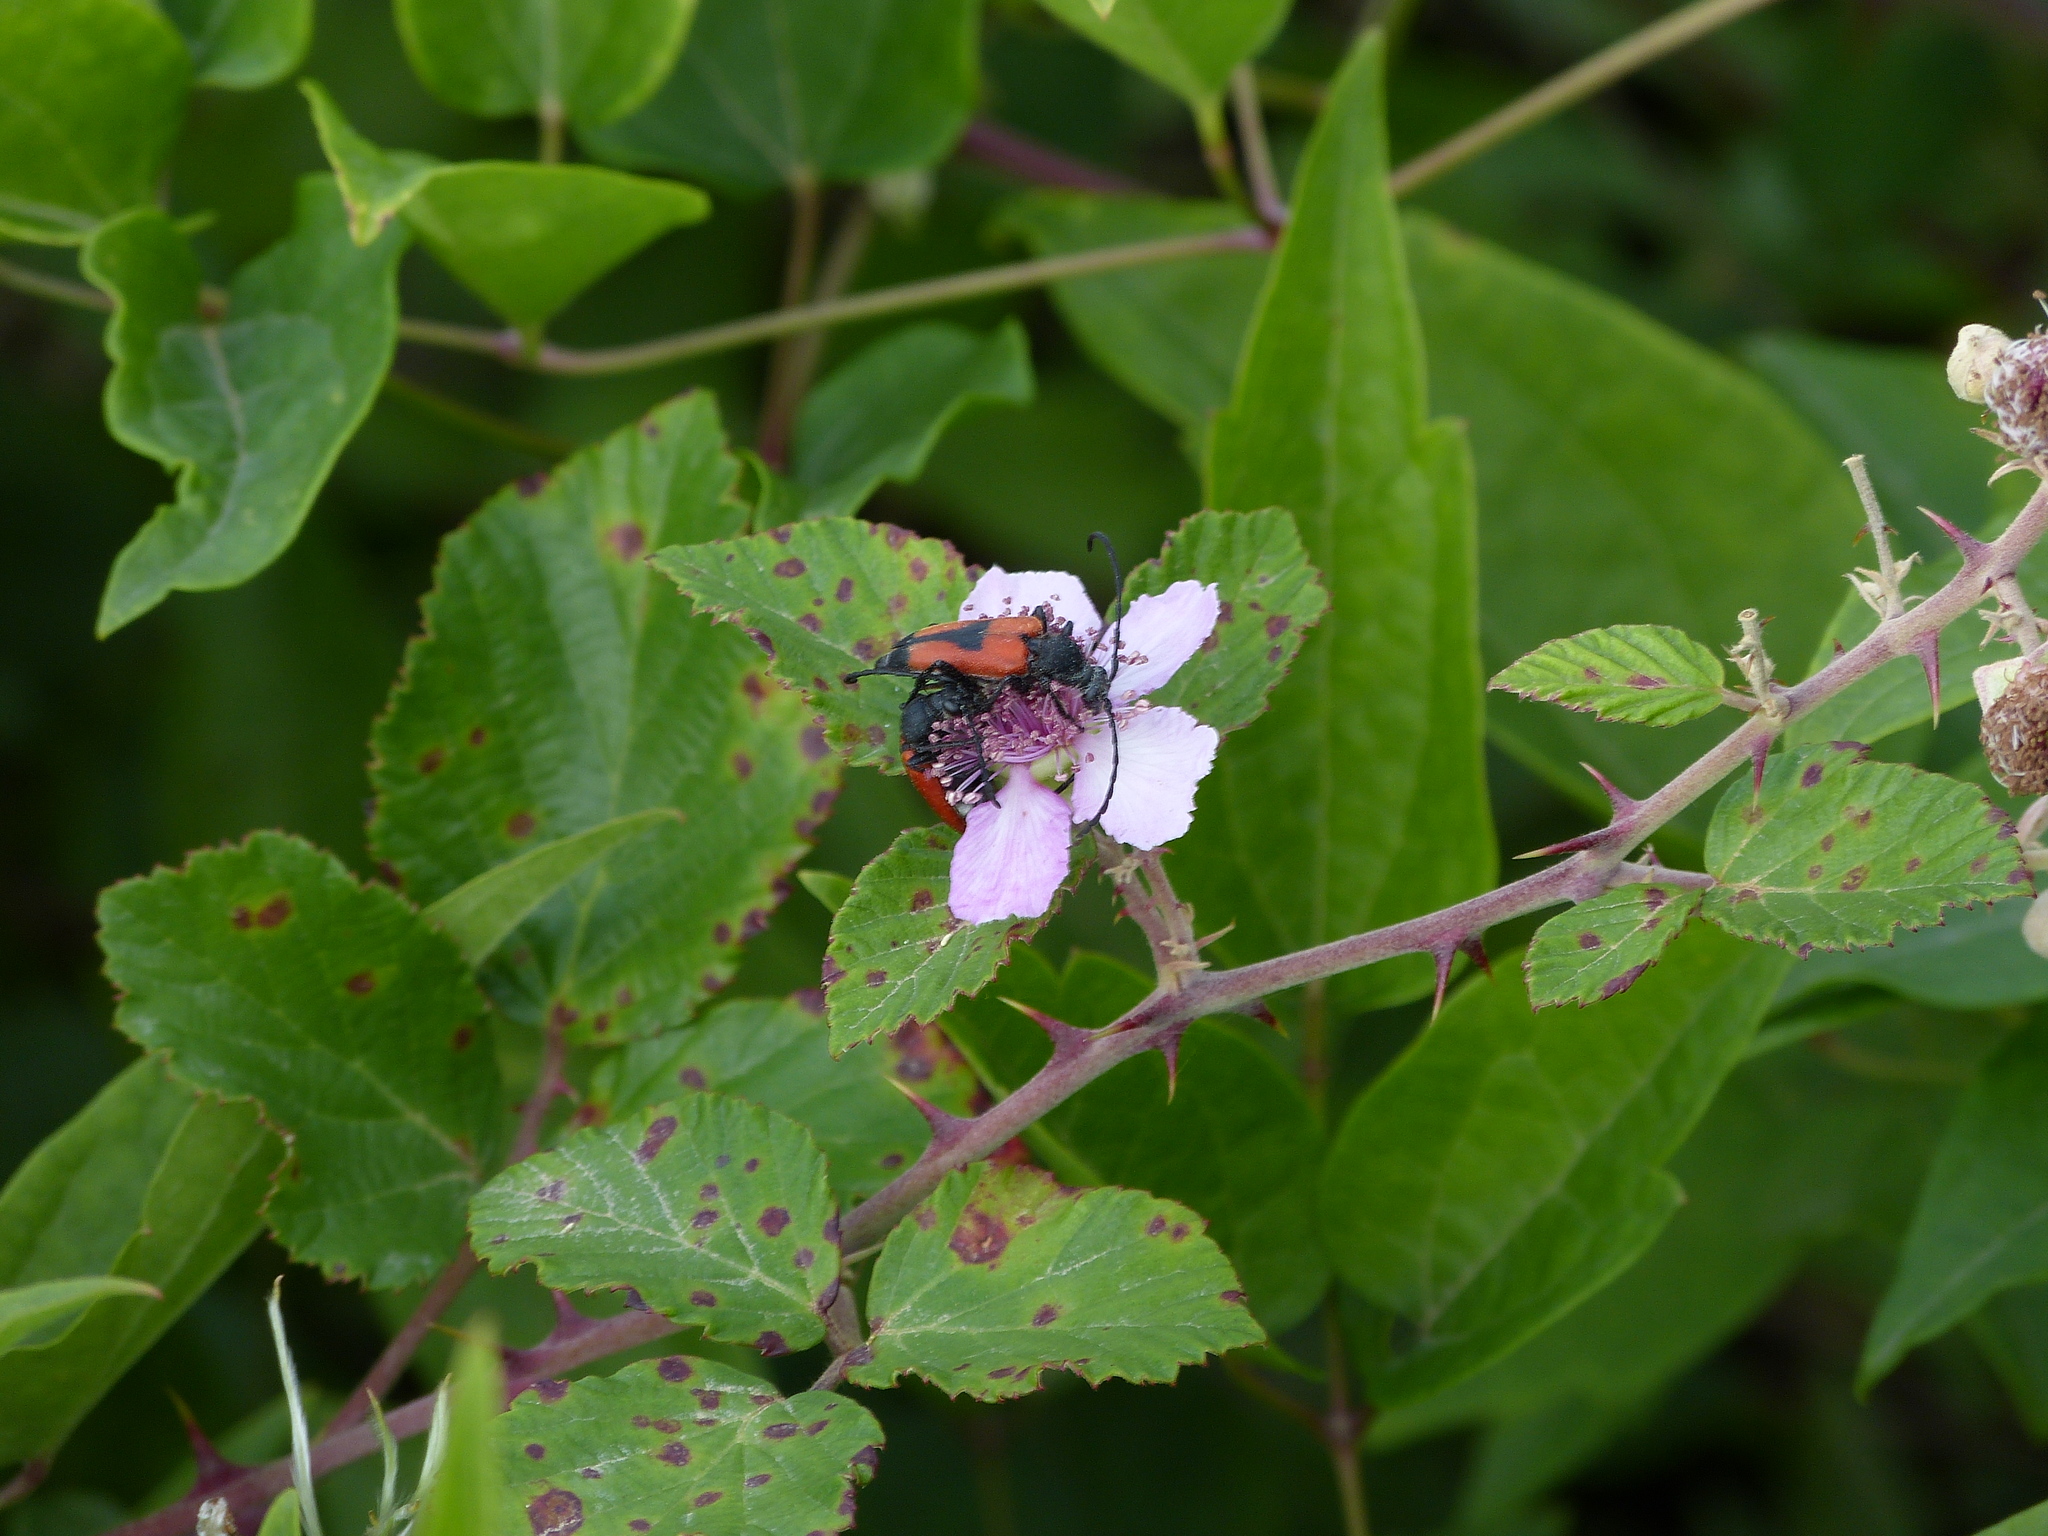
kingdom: Animalia
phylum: Arthropoda
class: Insecta
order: Coleoptera
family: Cerambycidae
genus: Stictoleptura
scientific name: Stictoleptura cordigera
